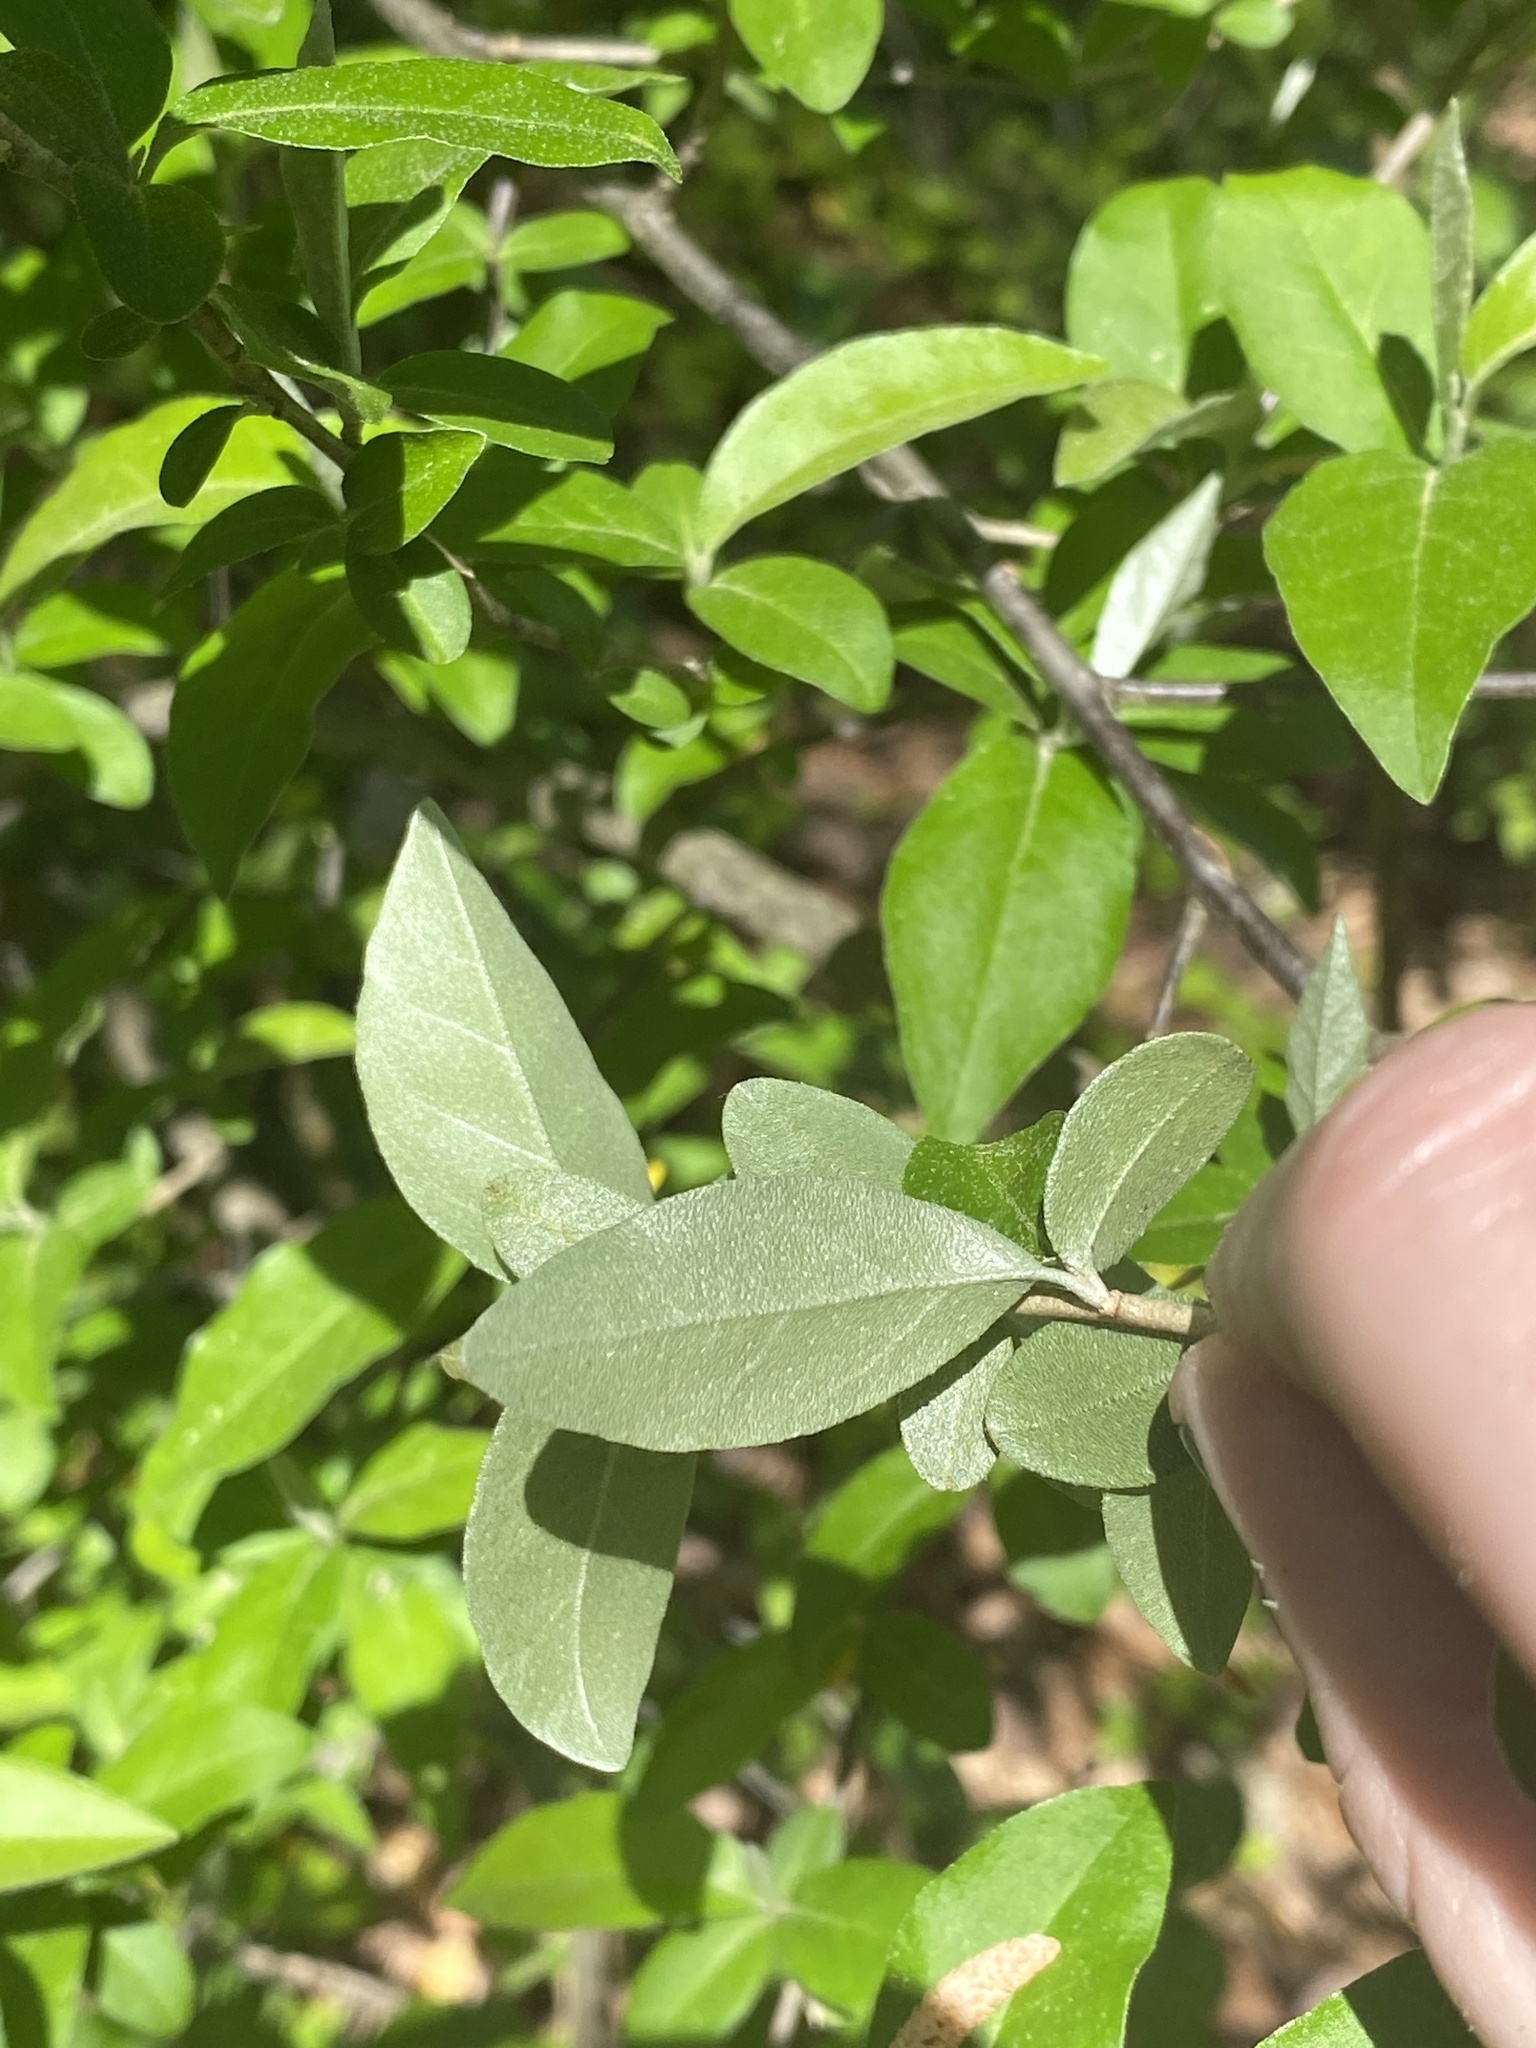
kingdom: Plantae
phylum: Tracheophyta
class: Magnoliopsida
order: Rosales
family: Elaeagnaceae
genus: Elaeagnus
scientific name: Elaeagnus umbellata
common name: Autumn olive
